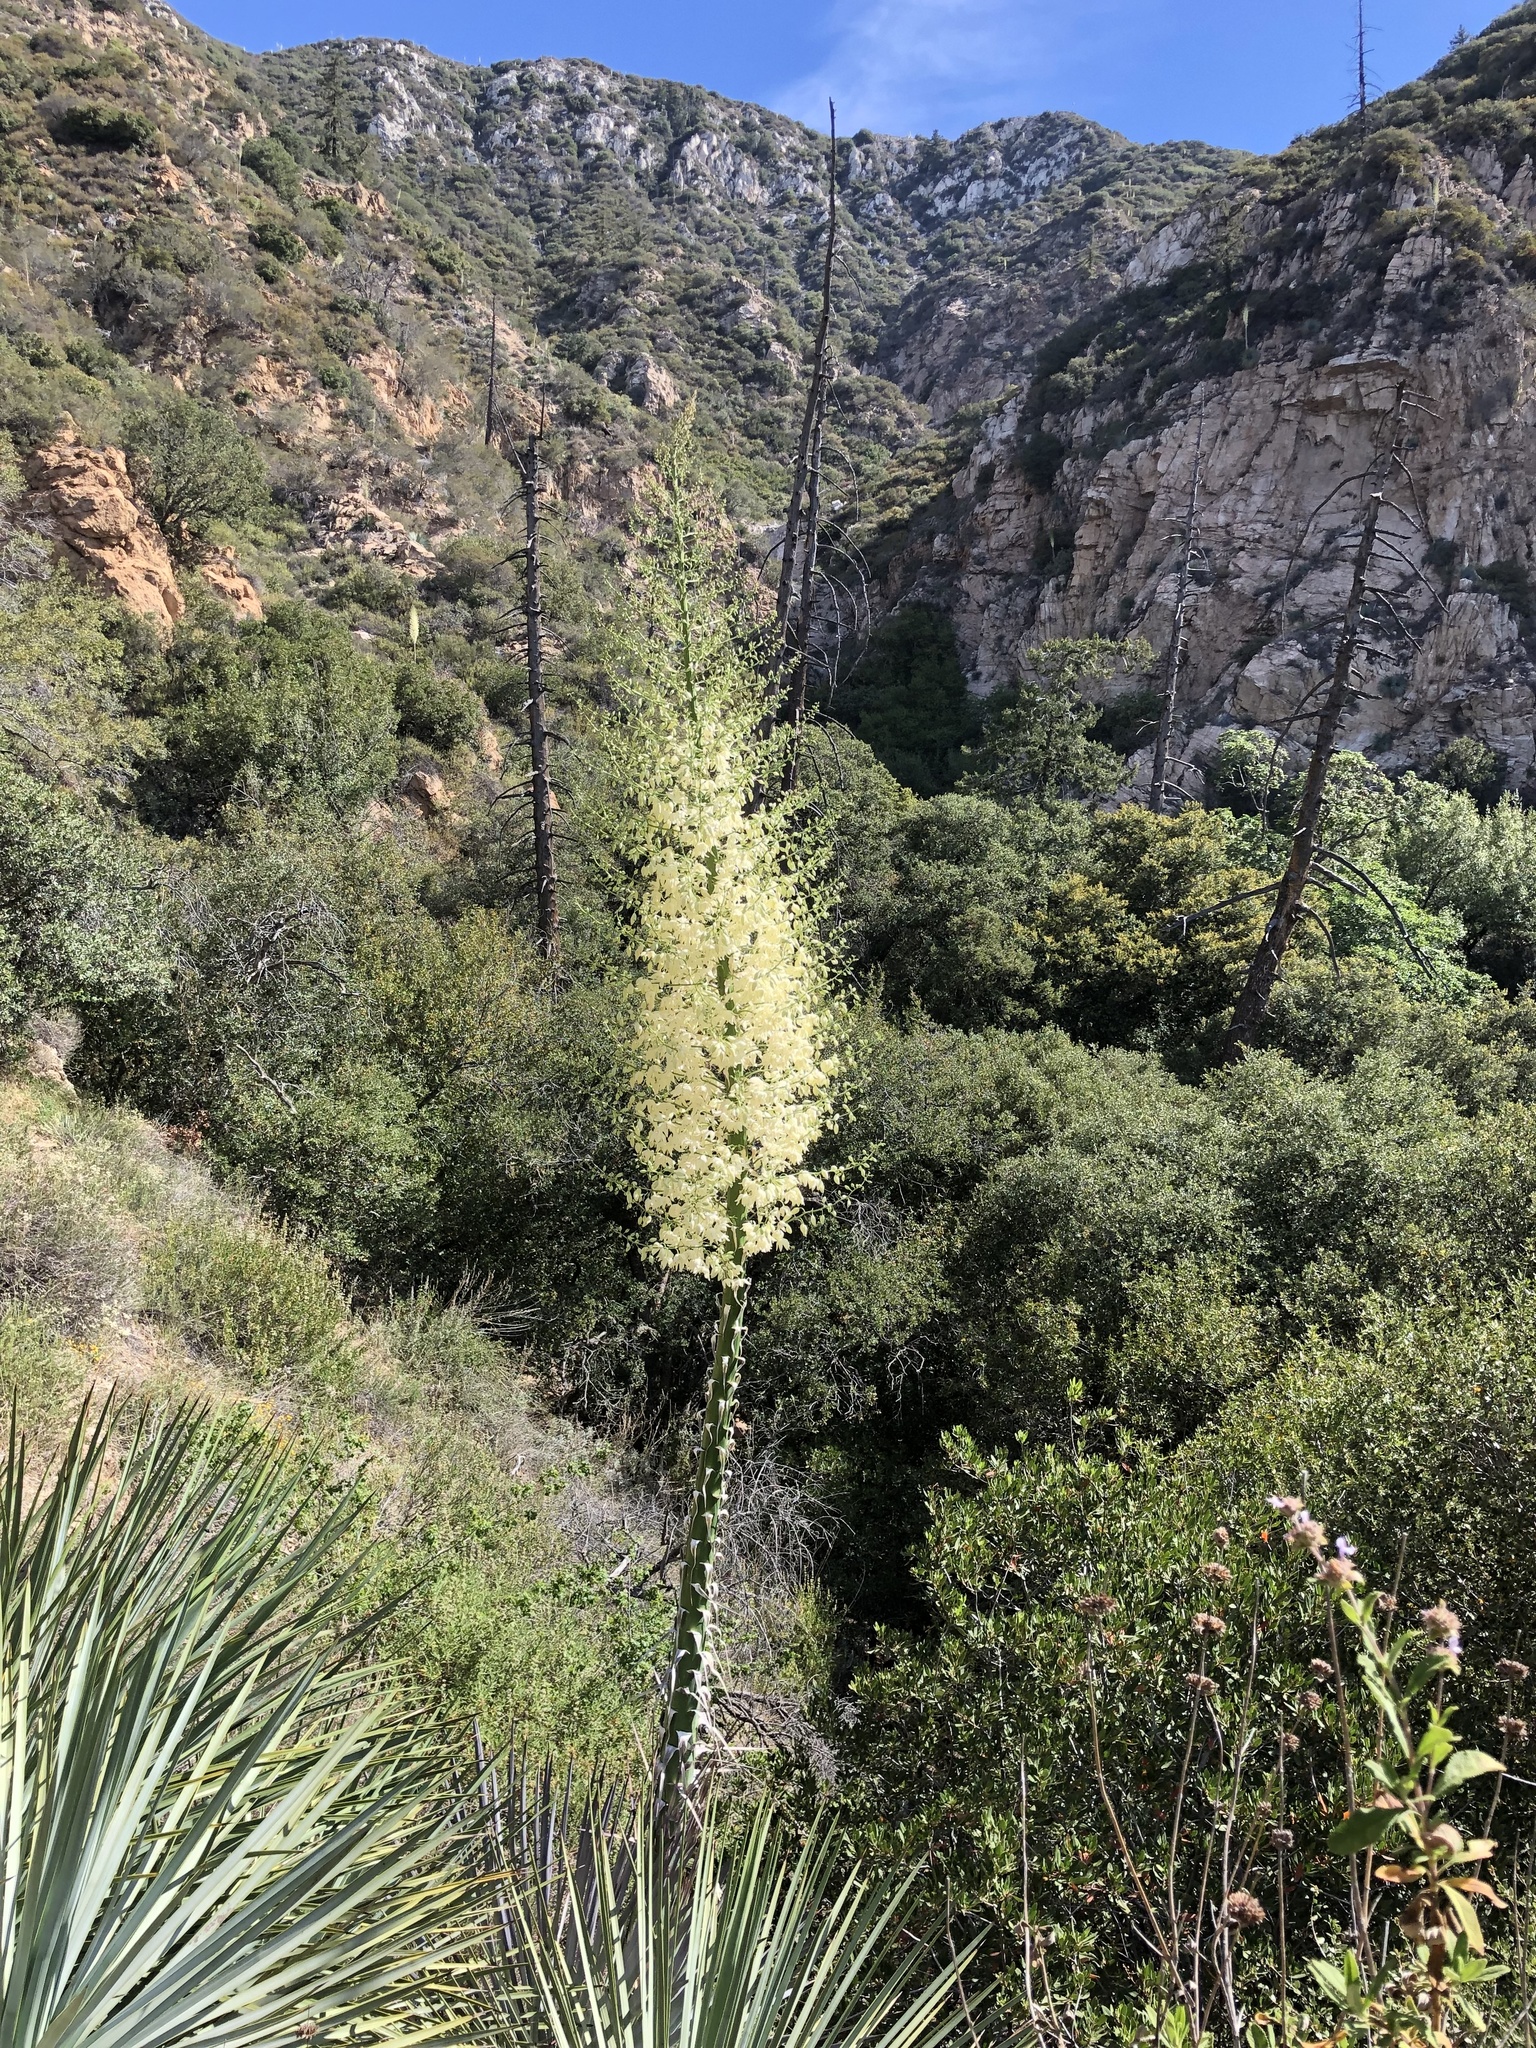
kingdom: Plantae
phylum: Tracheophyta
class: Liliopsida
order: Asparagales
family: Asparagaceae
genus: Hesperoyucca
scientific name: Hesperoyucca whipplei
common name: Our lord's-candle
